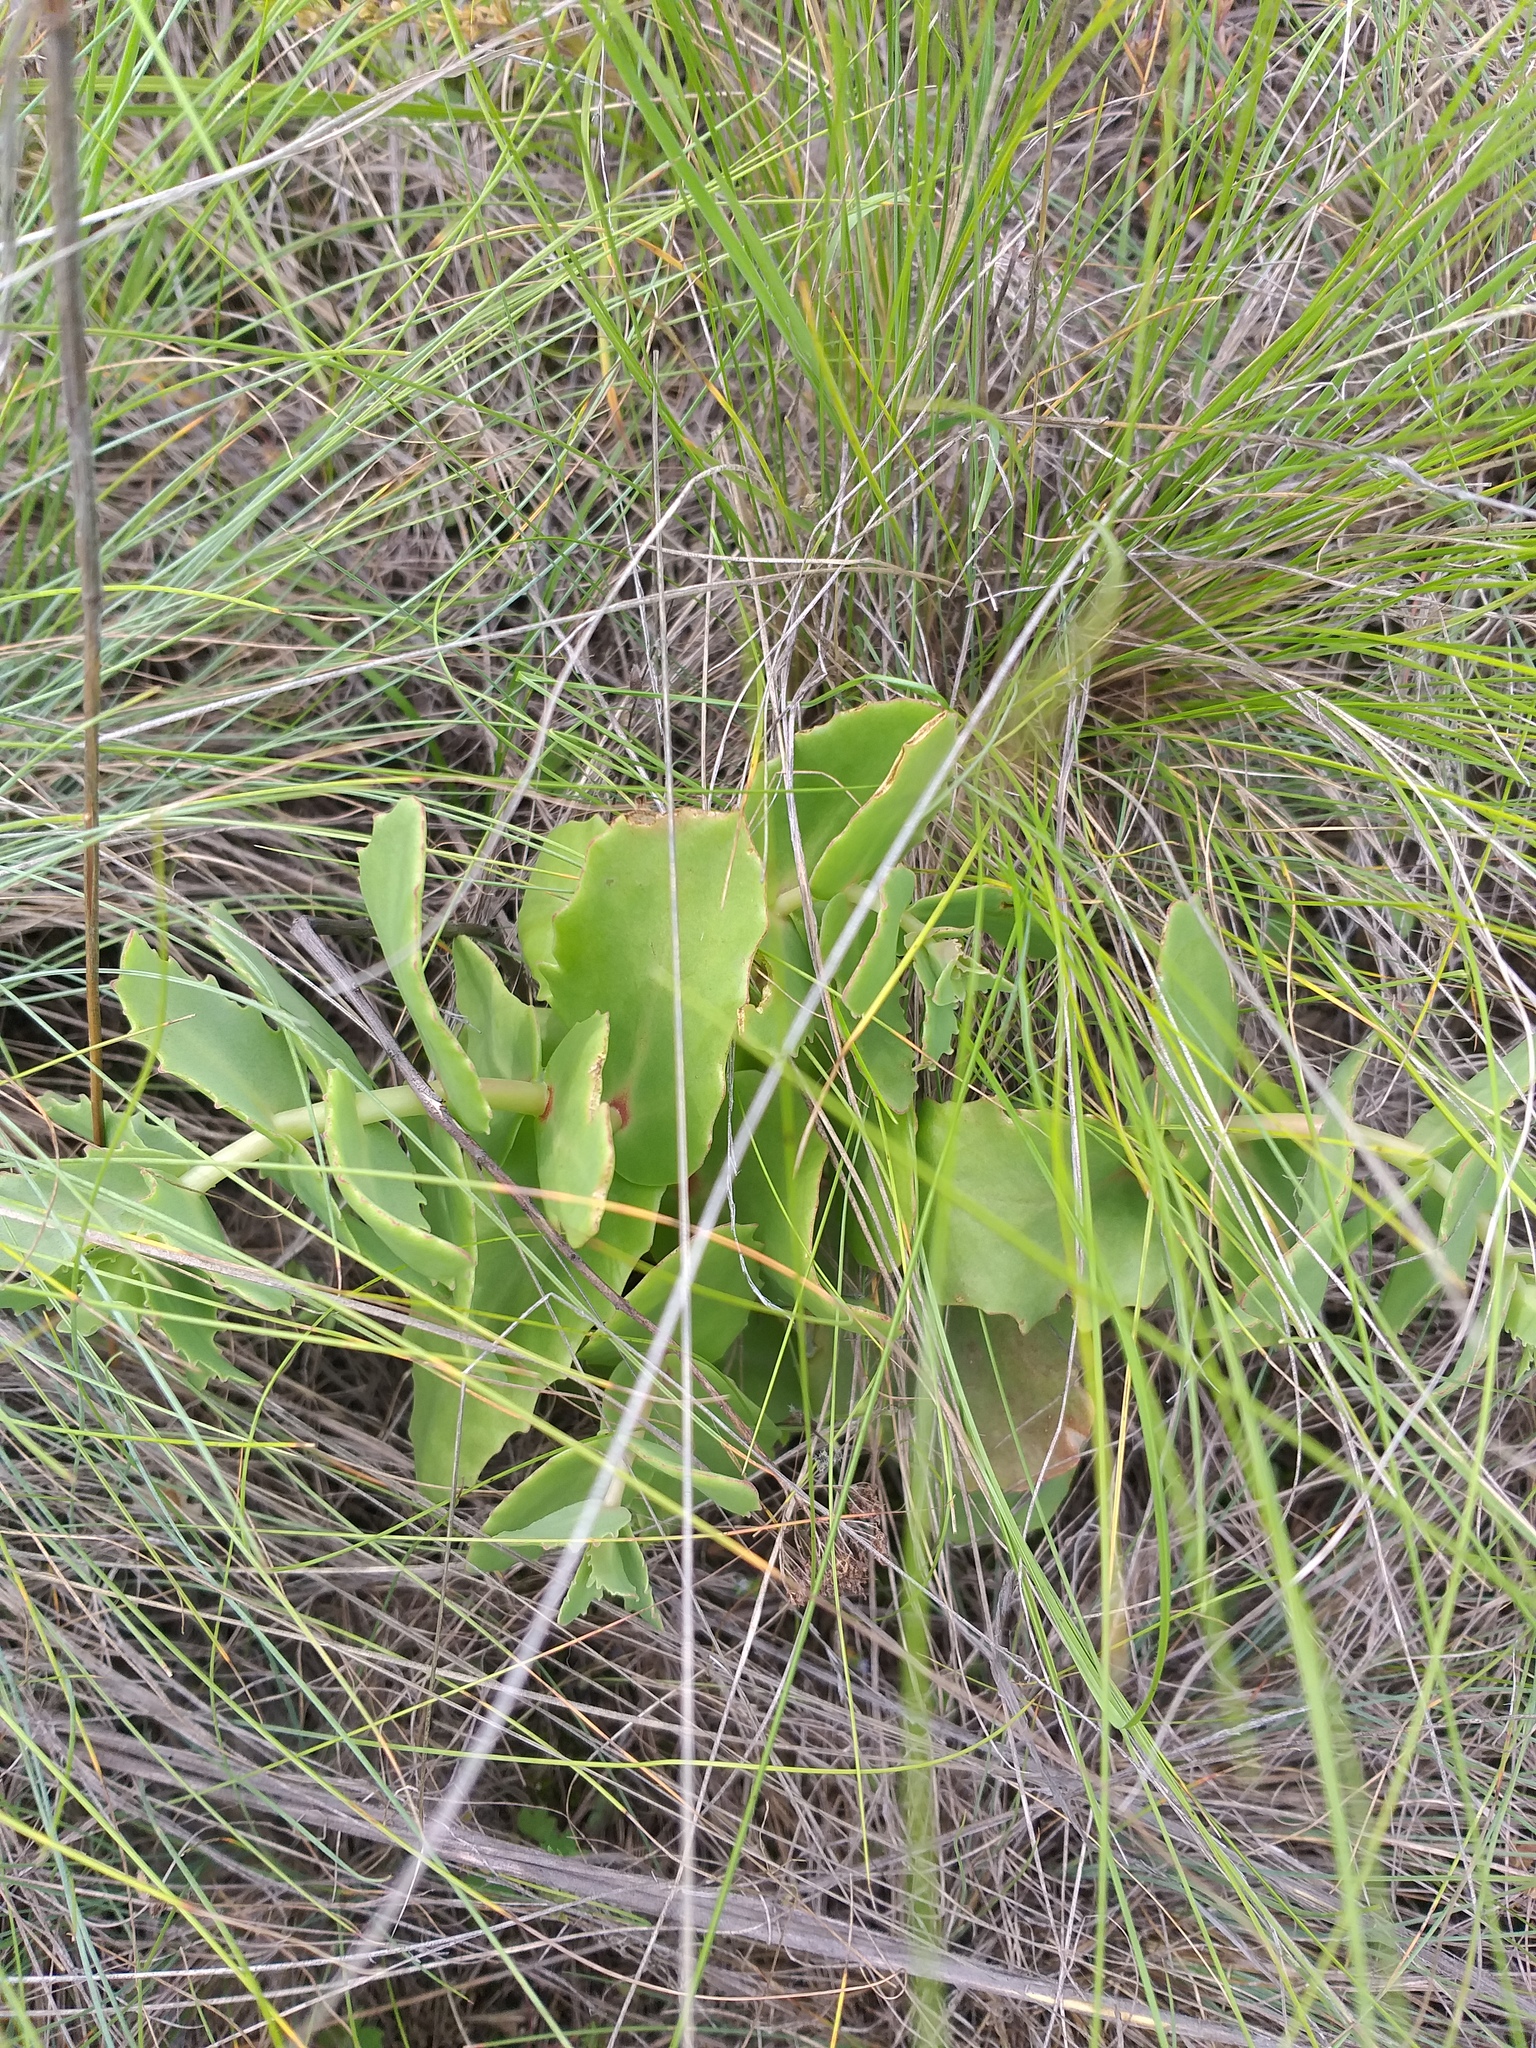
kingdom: Plantae
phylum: Tracheophyta
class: Magnoliopsida
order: Saxifragales
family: Crassulaceae
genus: Hylotelephium
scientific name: Hylotelephium maximum
